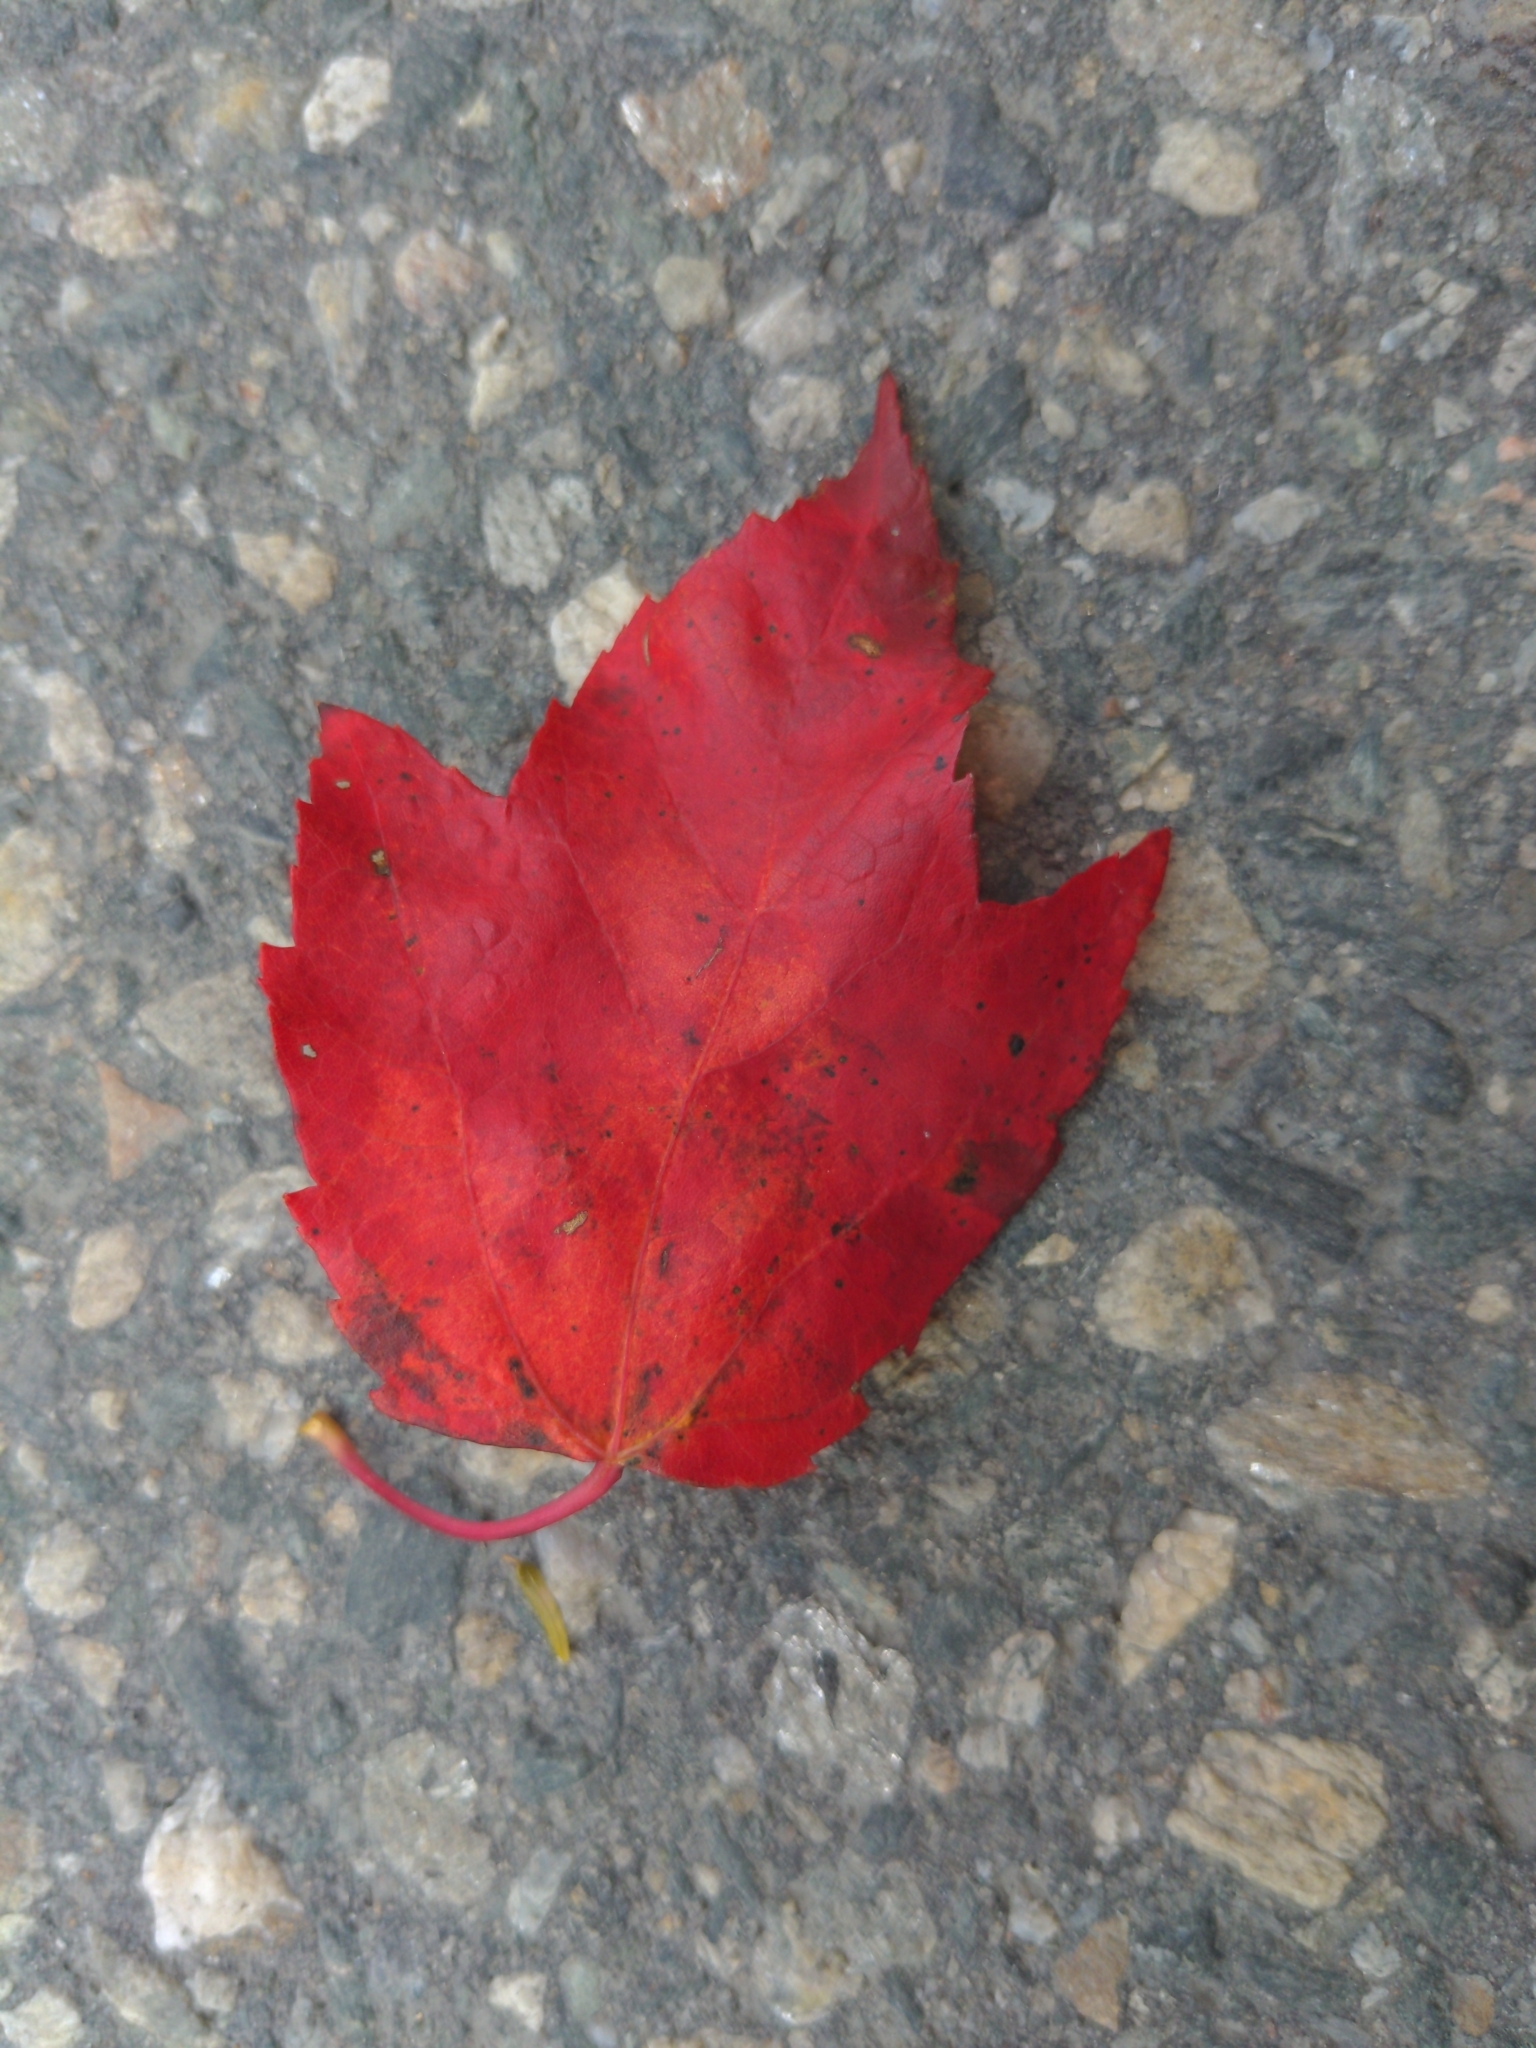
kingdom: Plantae
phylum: Tracheophyta
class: Magnoliopsida
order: Sapindales
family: Sapindaceae
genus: Acer
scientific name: Acer rubrum
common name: Red maple
